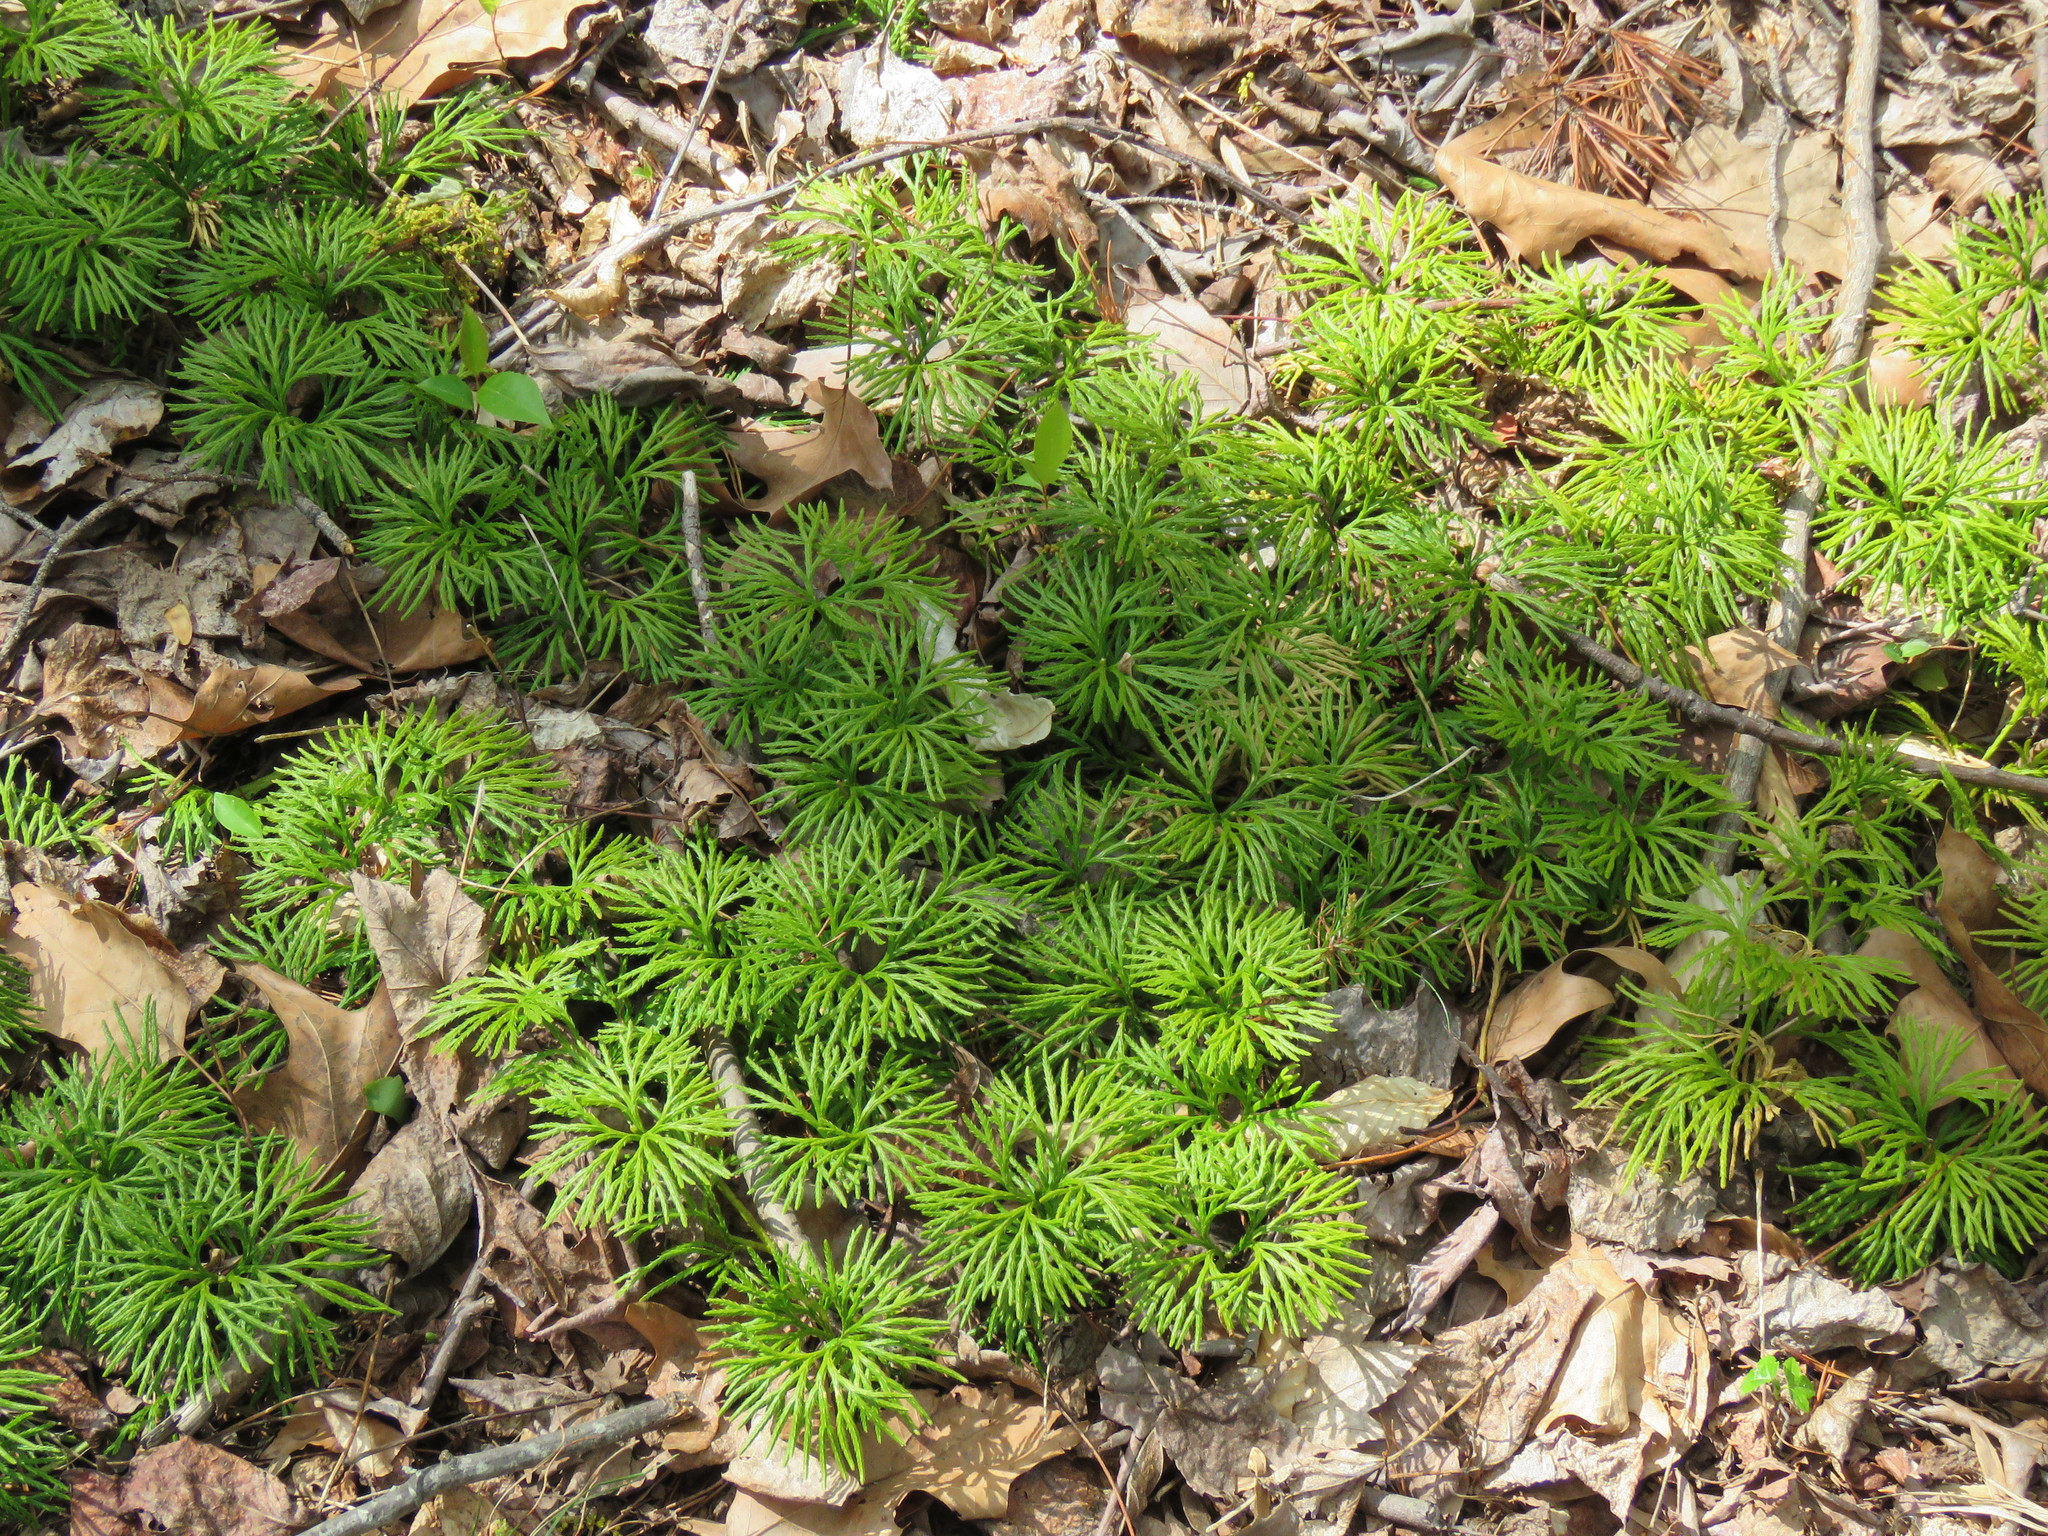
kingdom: Plantae
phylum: Tracheophyta
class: Lycopodiopsida
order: Lycopodiales
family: Lycopodiaceae
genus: Diphasiastrum
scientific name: Diphasiastrum digitatum
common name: Southern running-pine
